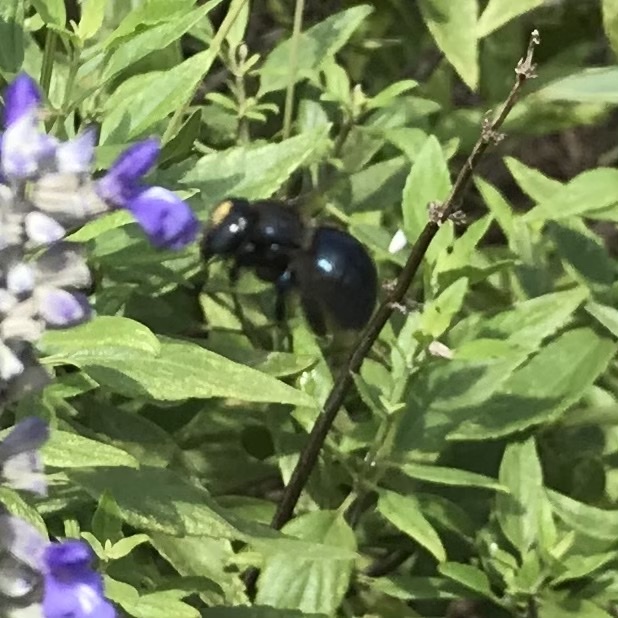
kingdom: Animalia
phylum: Arthropoda
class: Insecta
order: Hymenoptera
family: Apidae
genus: Xylocopa
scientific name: Xylocopa micans
